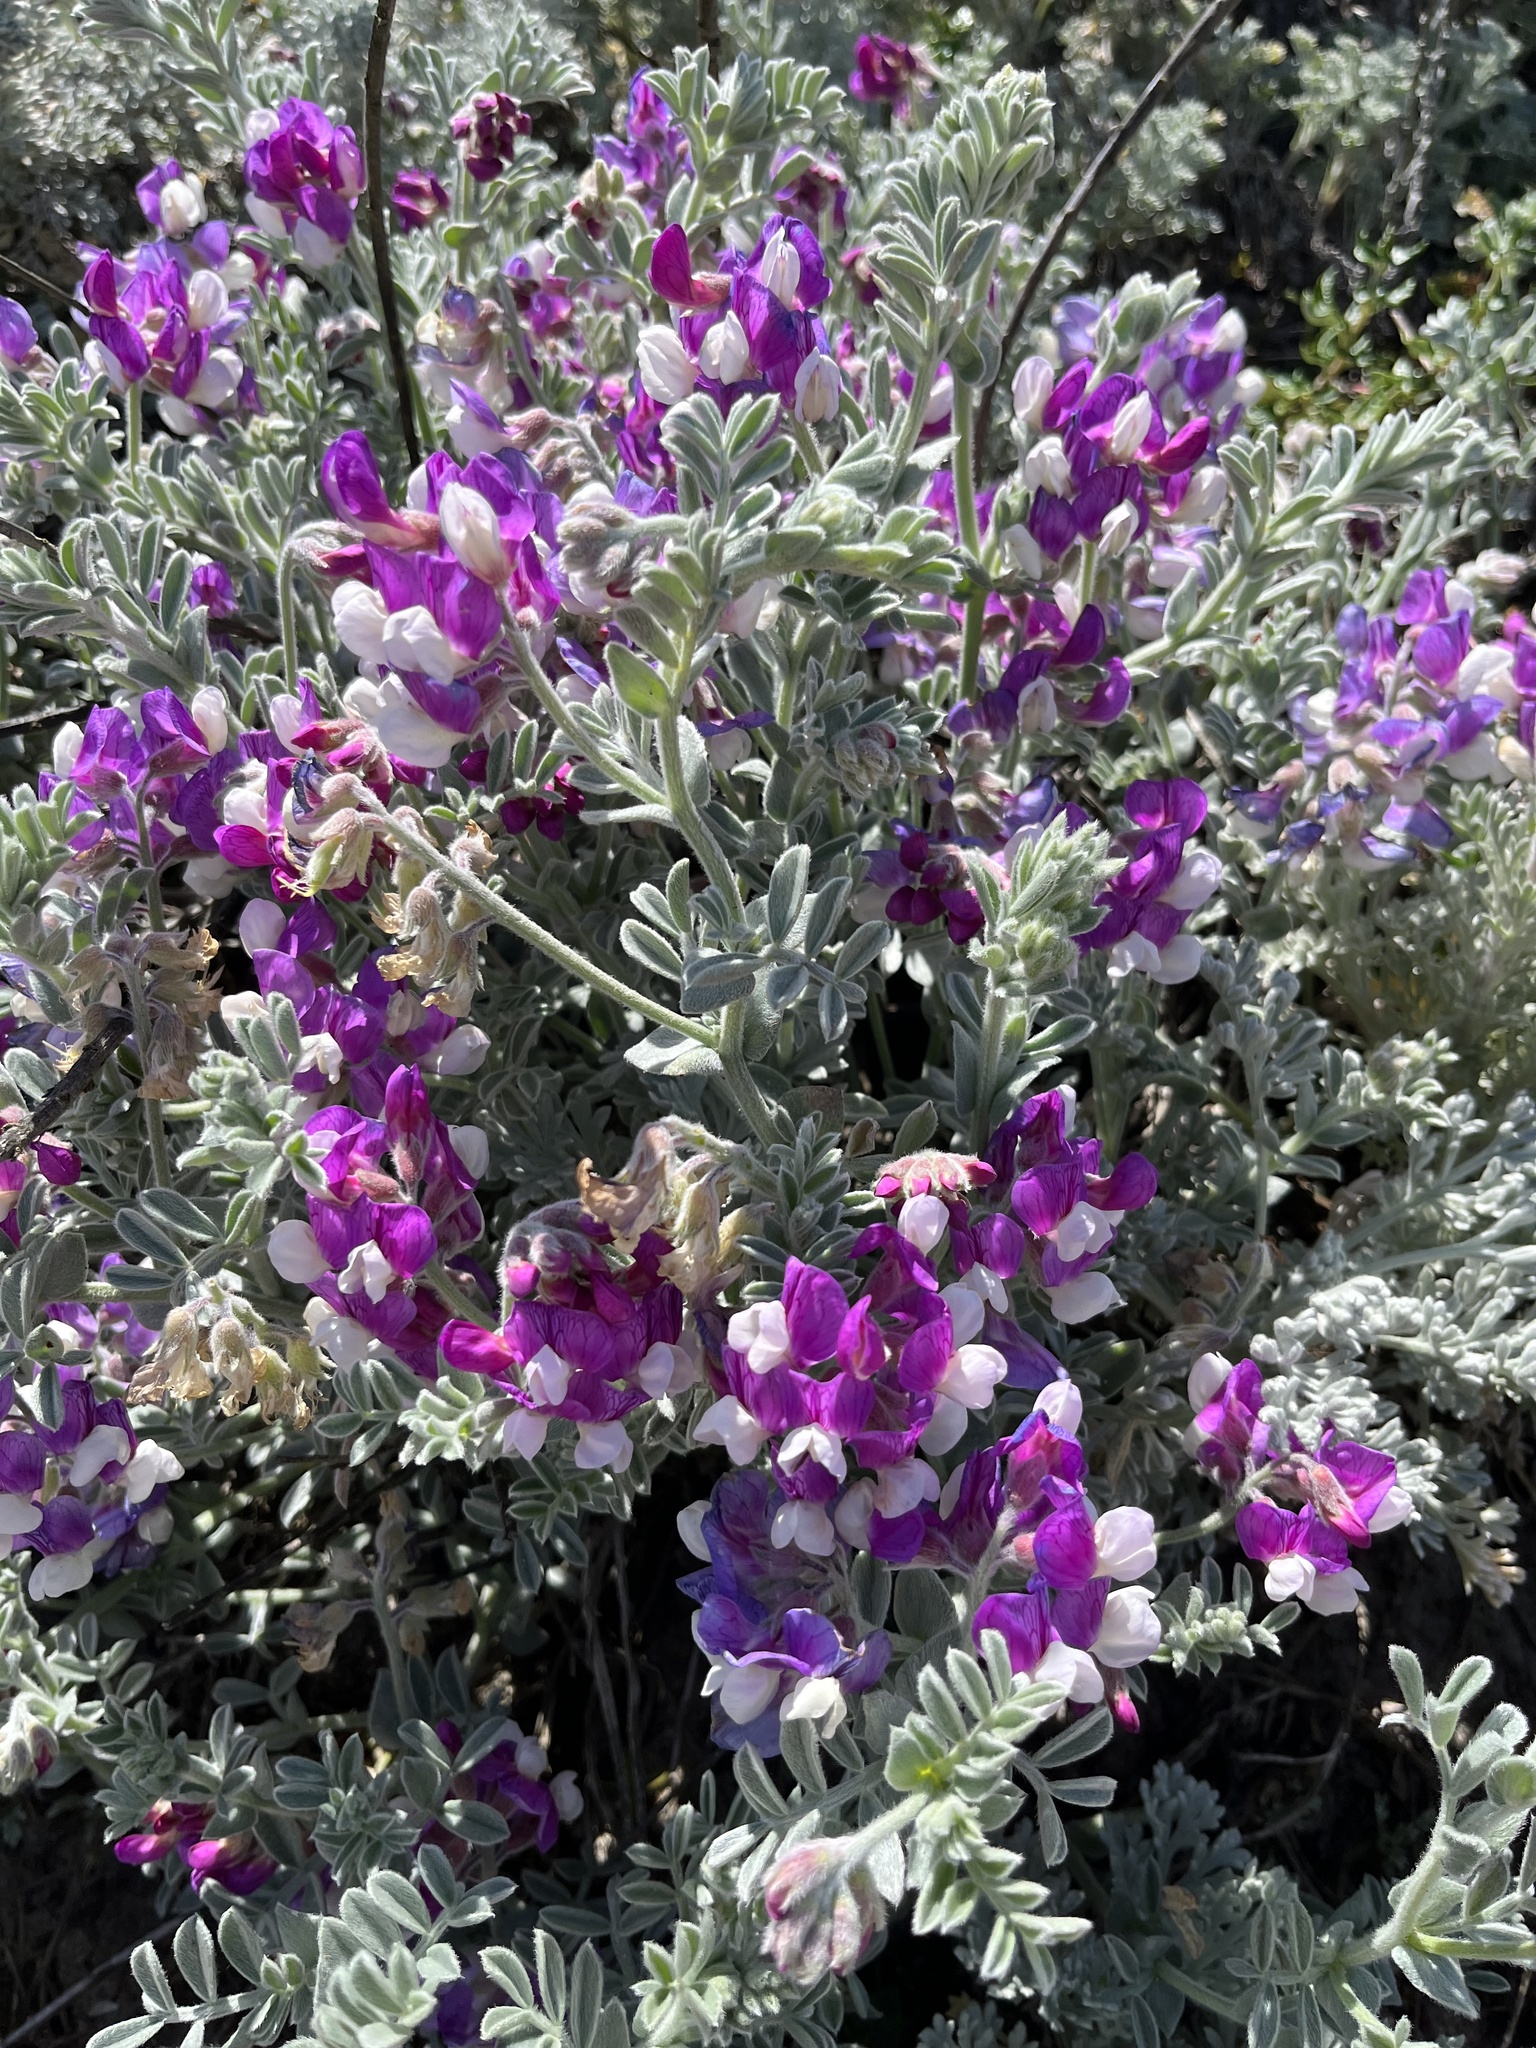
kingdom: Plantae
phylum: Tracheophyta
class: Magnoliopsida
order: Fabales
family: Fabaceae
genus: Lathyrus
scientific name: Lathyrus littoralis
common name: Dune sweet pea
